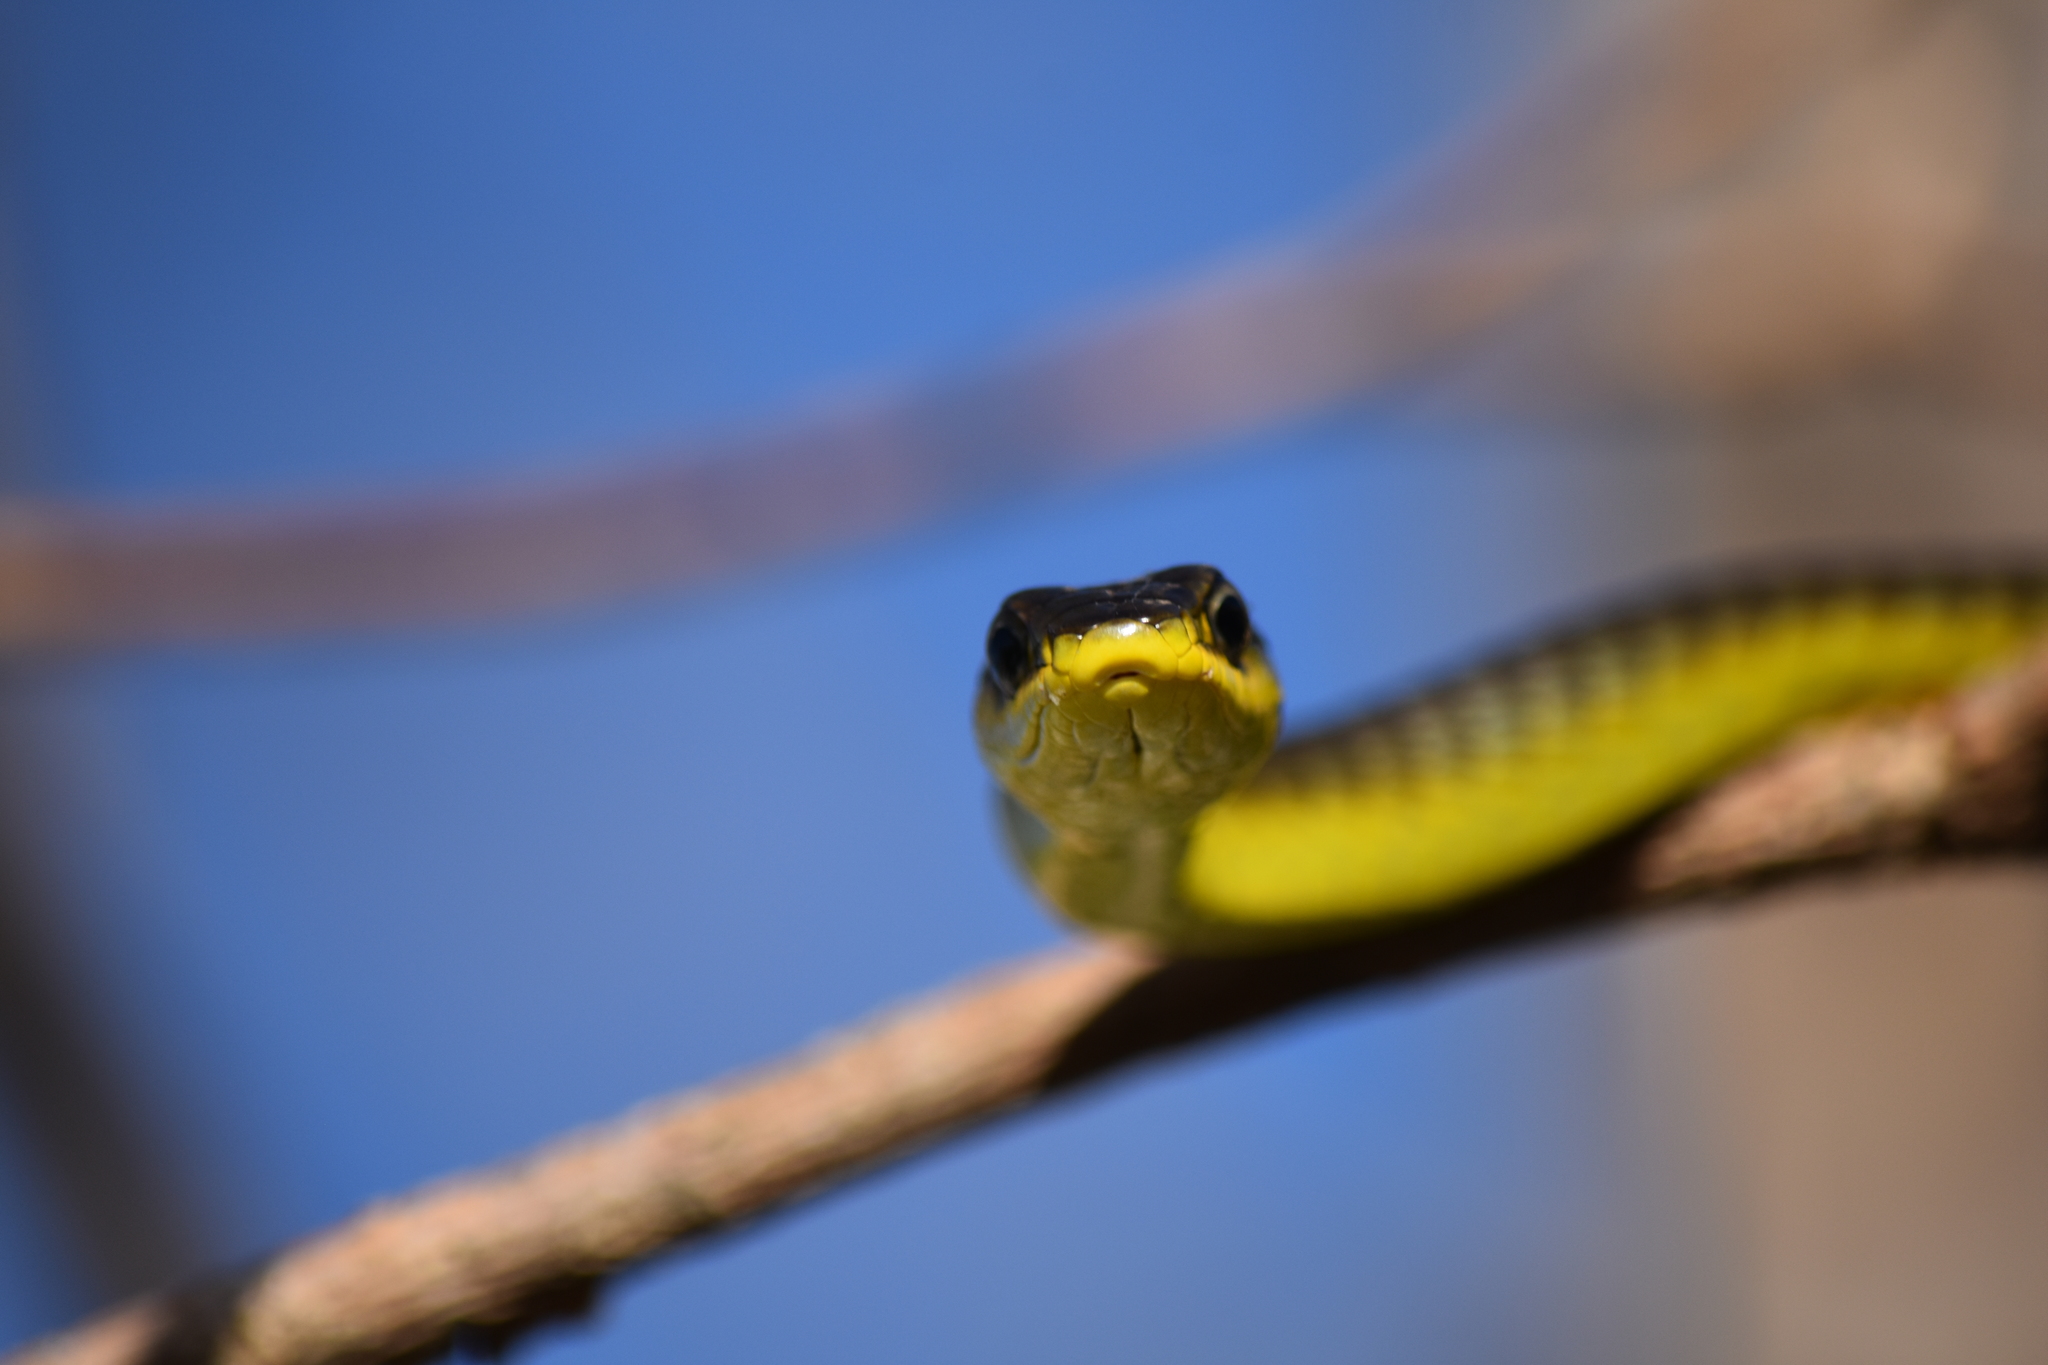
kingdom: Animalia
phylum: Chordata
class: Squamata
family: Colubridae
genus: Dendrelaphis
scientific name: Dendrelaphis punctulatus
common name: Common tree snake
